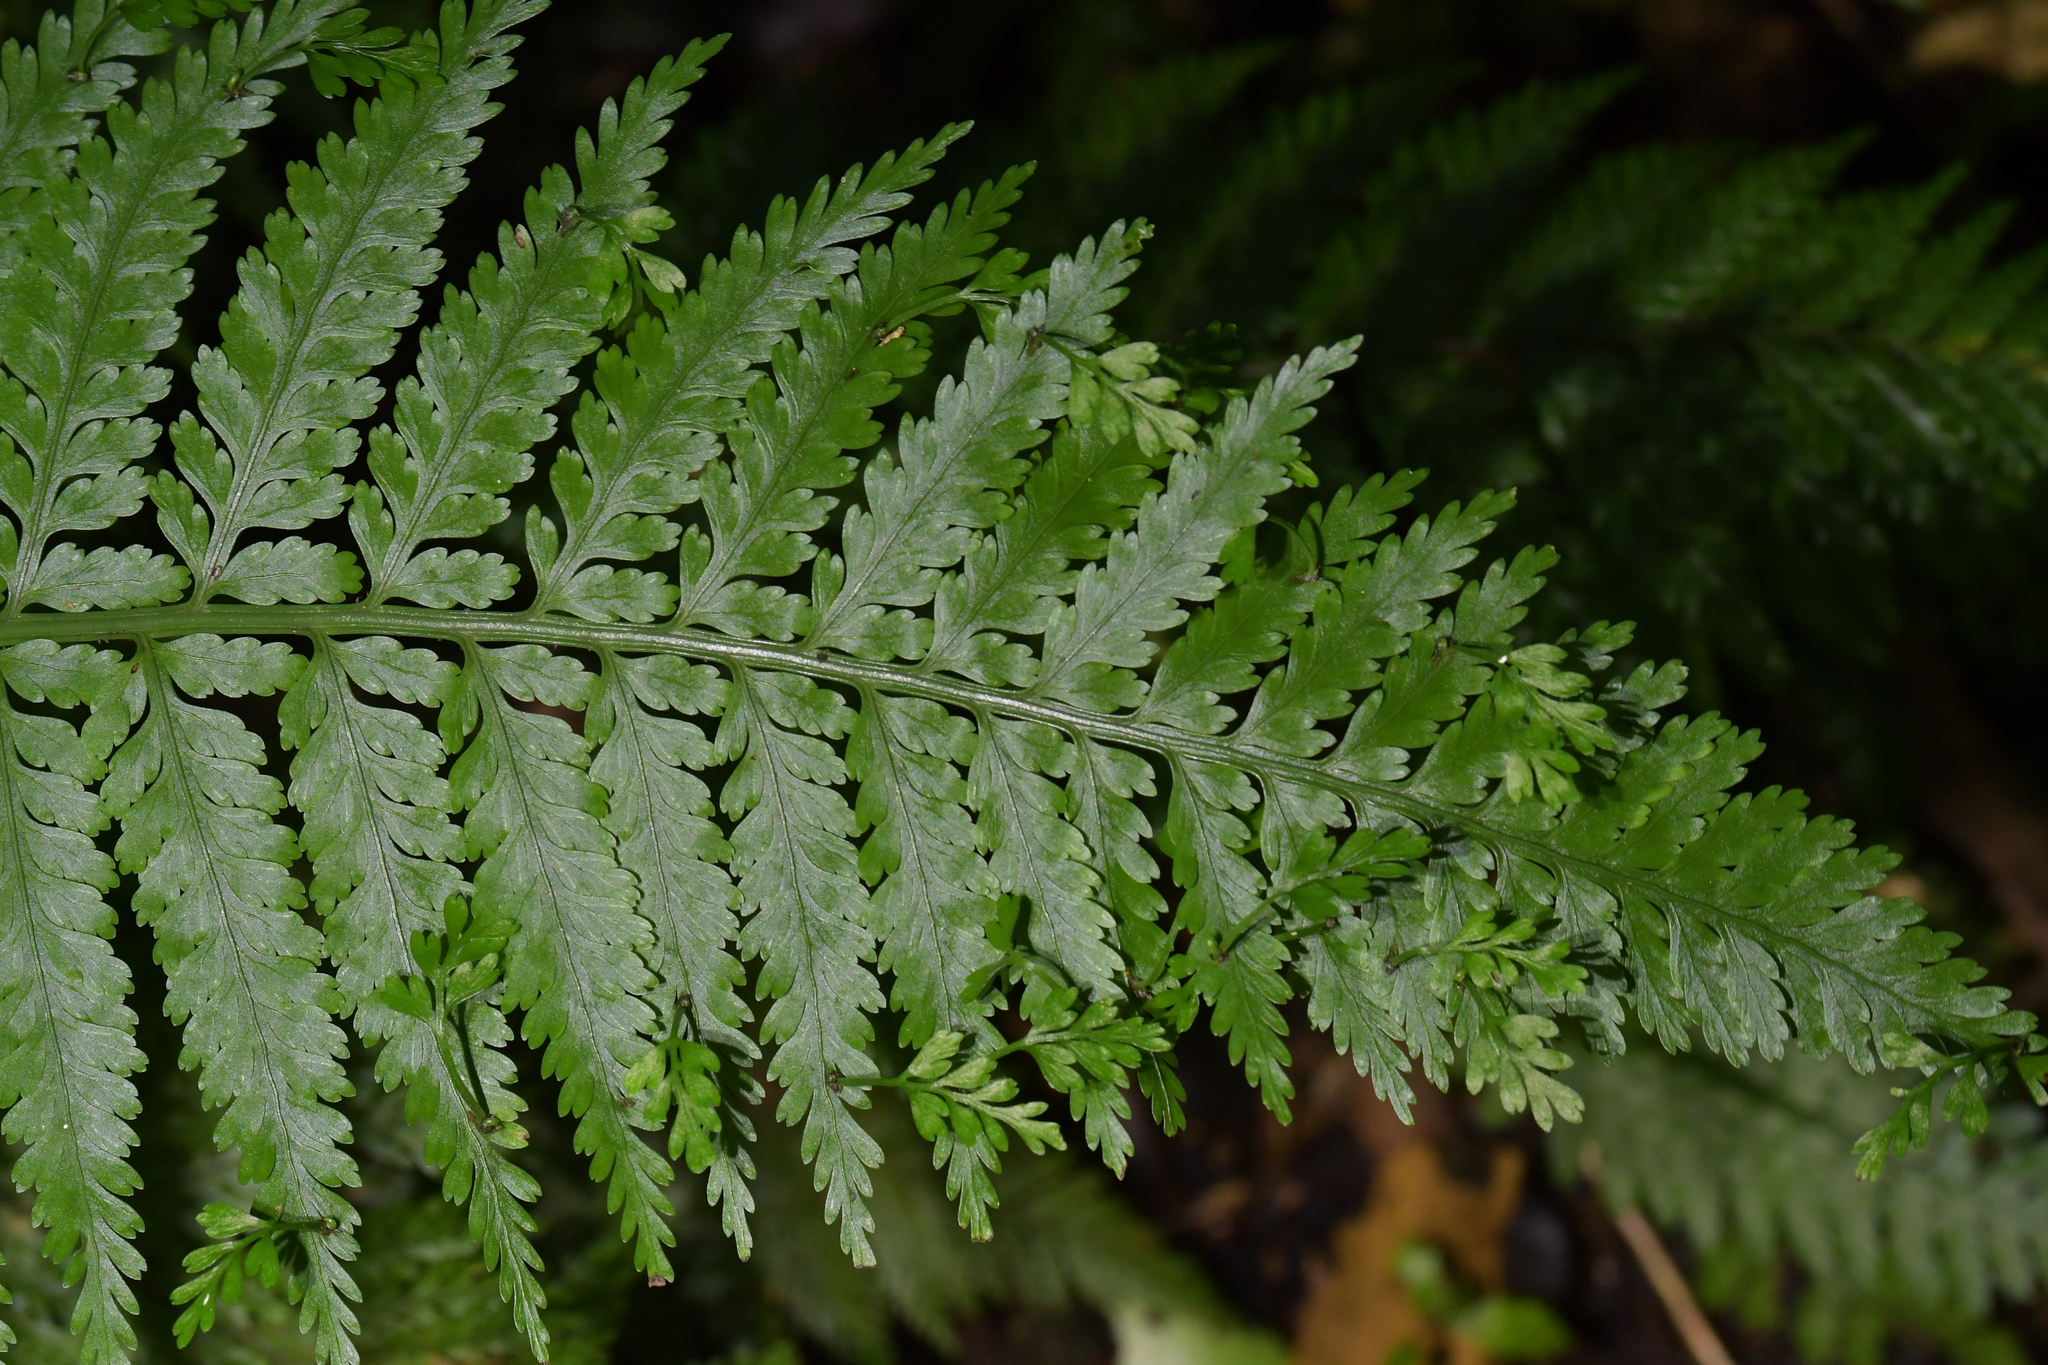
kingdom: Plantae
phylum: Tracheophyta
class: Polypodiopsida
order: Polypodiales
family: Aspleniaceae
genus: Asplenium
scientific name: Asplenium bulbiferum
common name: Mother fern
